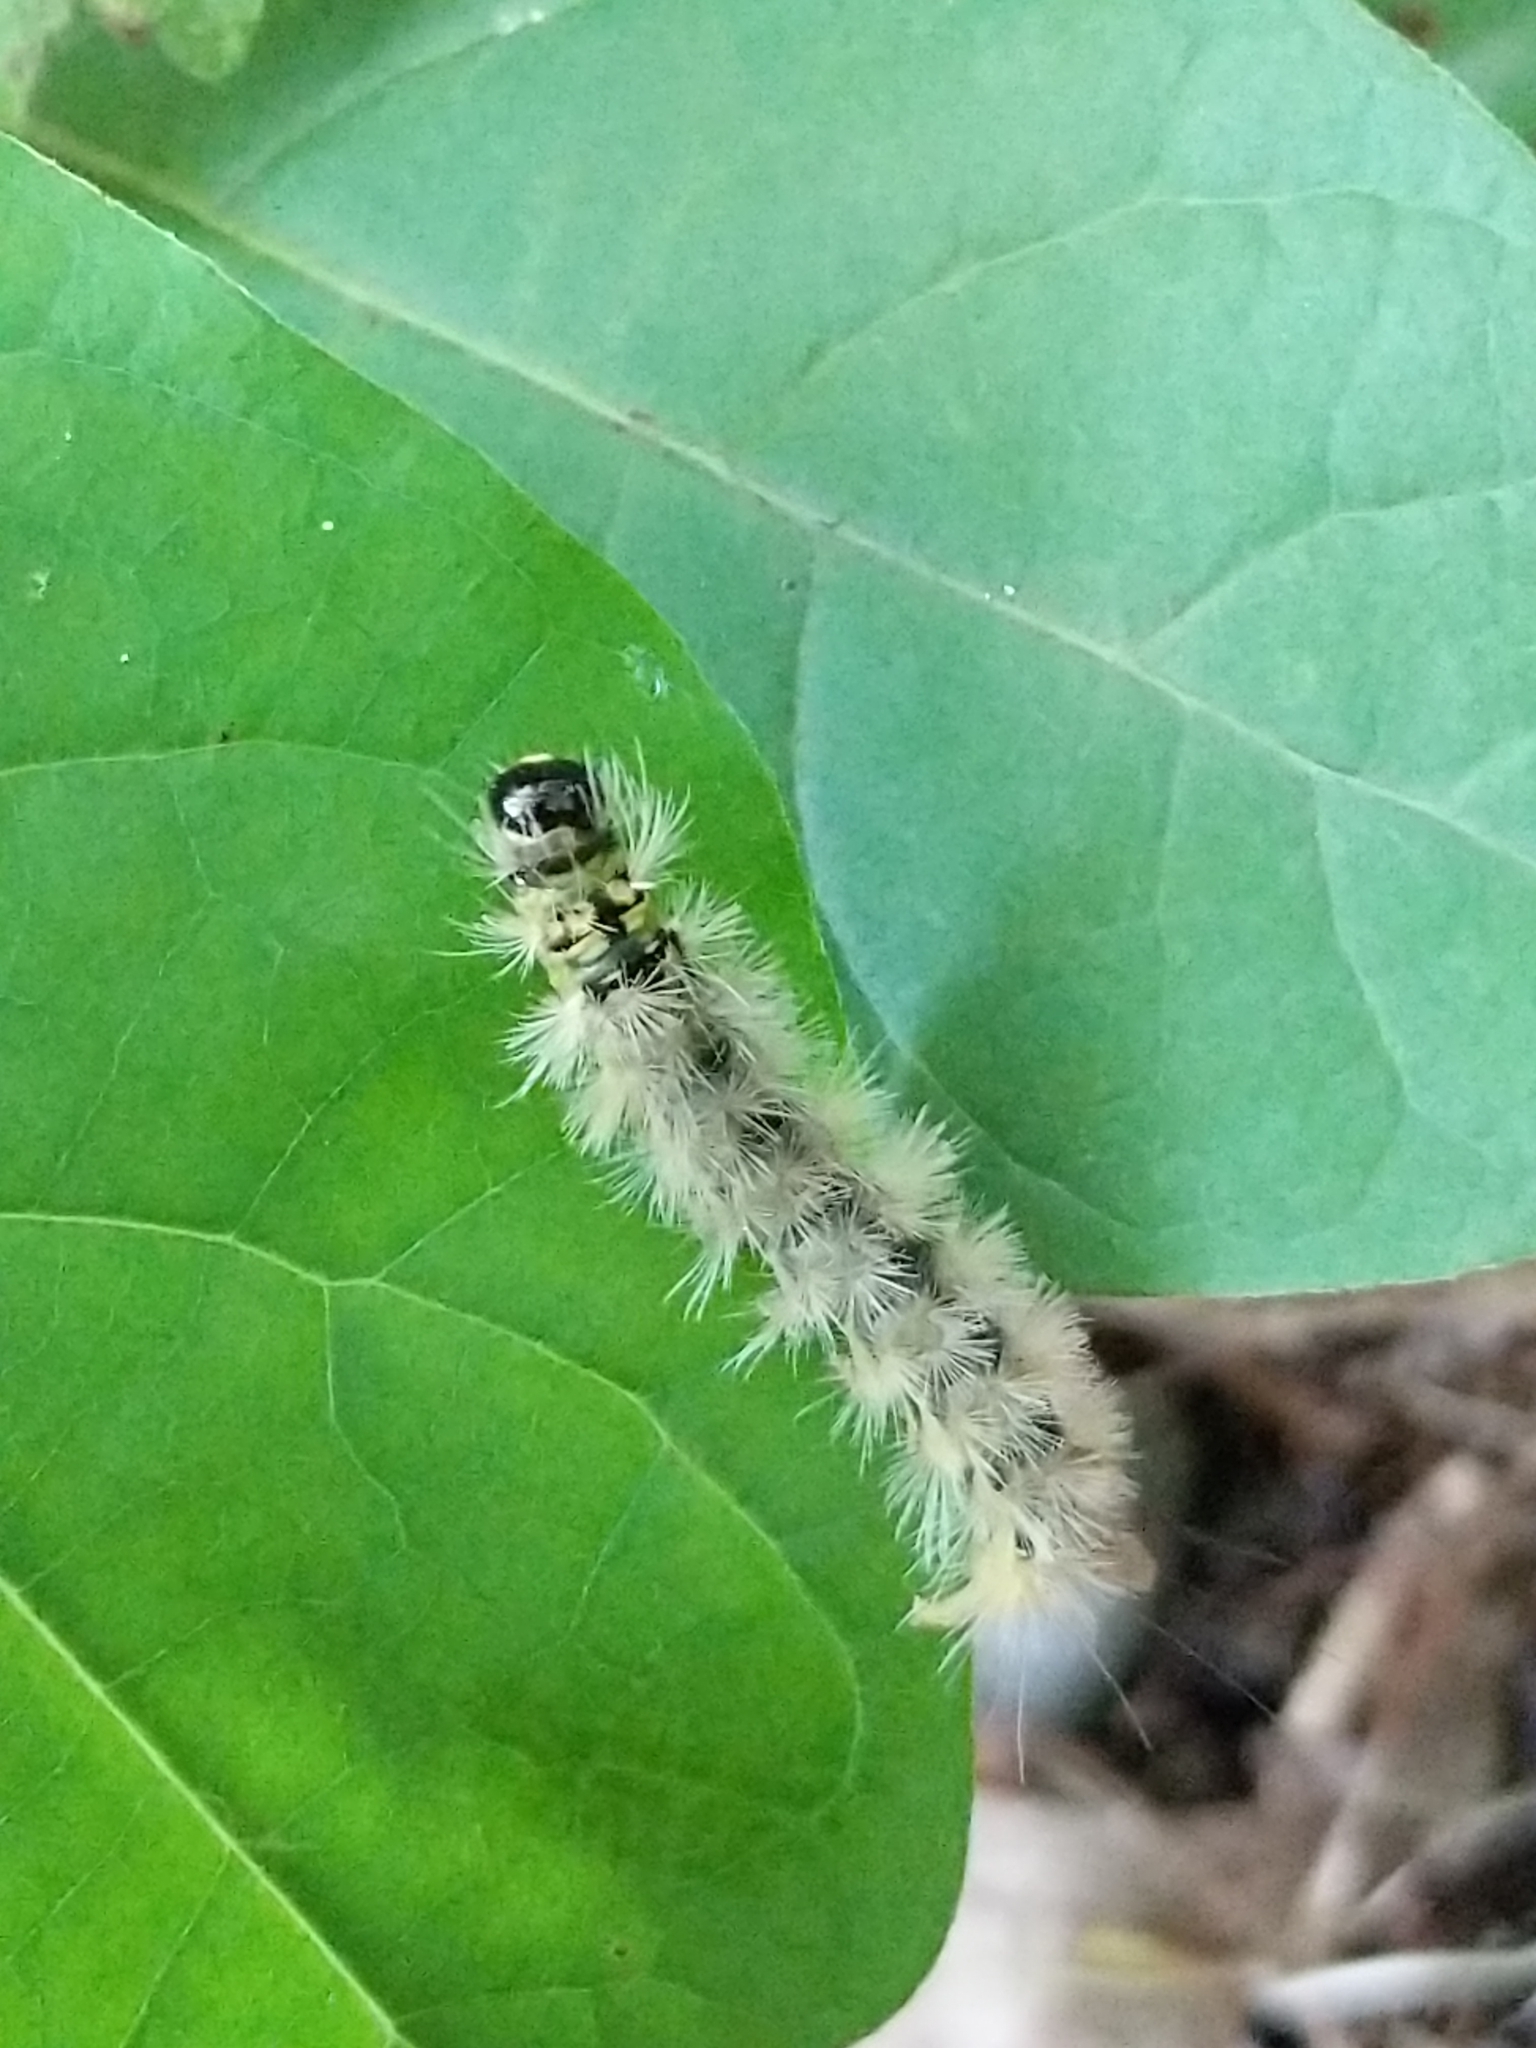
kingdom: Animalia
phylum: Arthropoda
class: Insecta
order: Lepidoptera
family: Erebidae
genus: Halysidota
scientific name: Halysidota tessellaris
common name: Banded tussock moth
